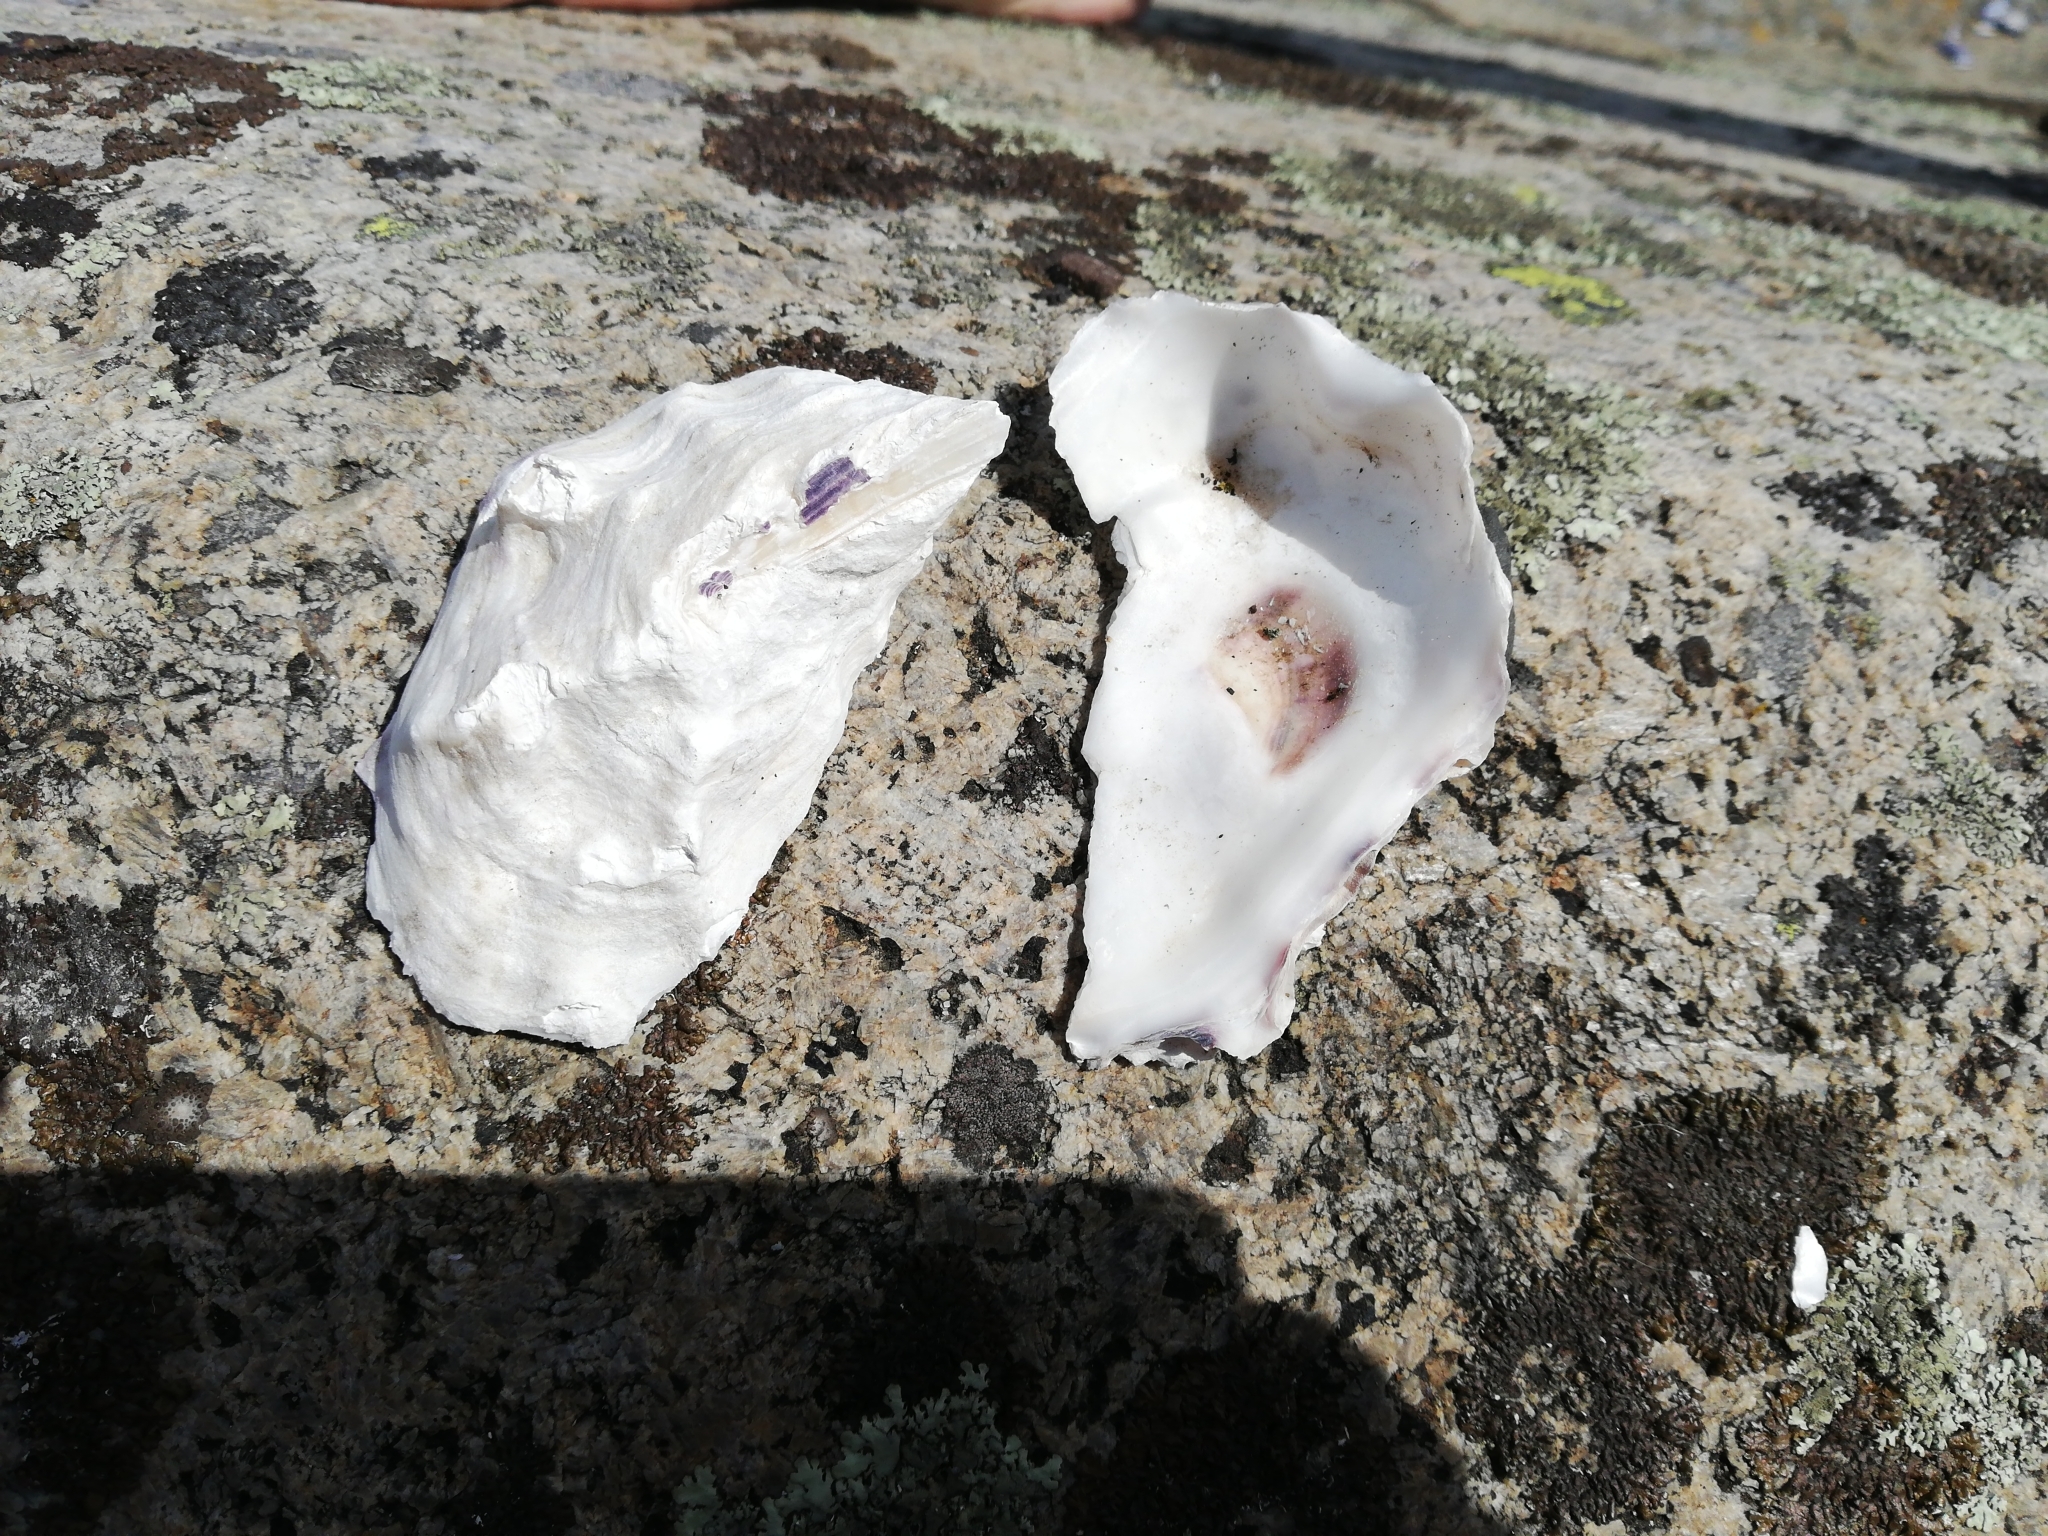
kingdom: Animalia
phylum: Mollusca
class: Bivalvia
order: Ostreida
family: Ostreidae
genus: Magallana
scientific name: Magallana gigas
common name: Pacific oyster
